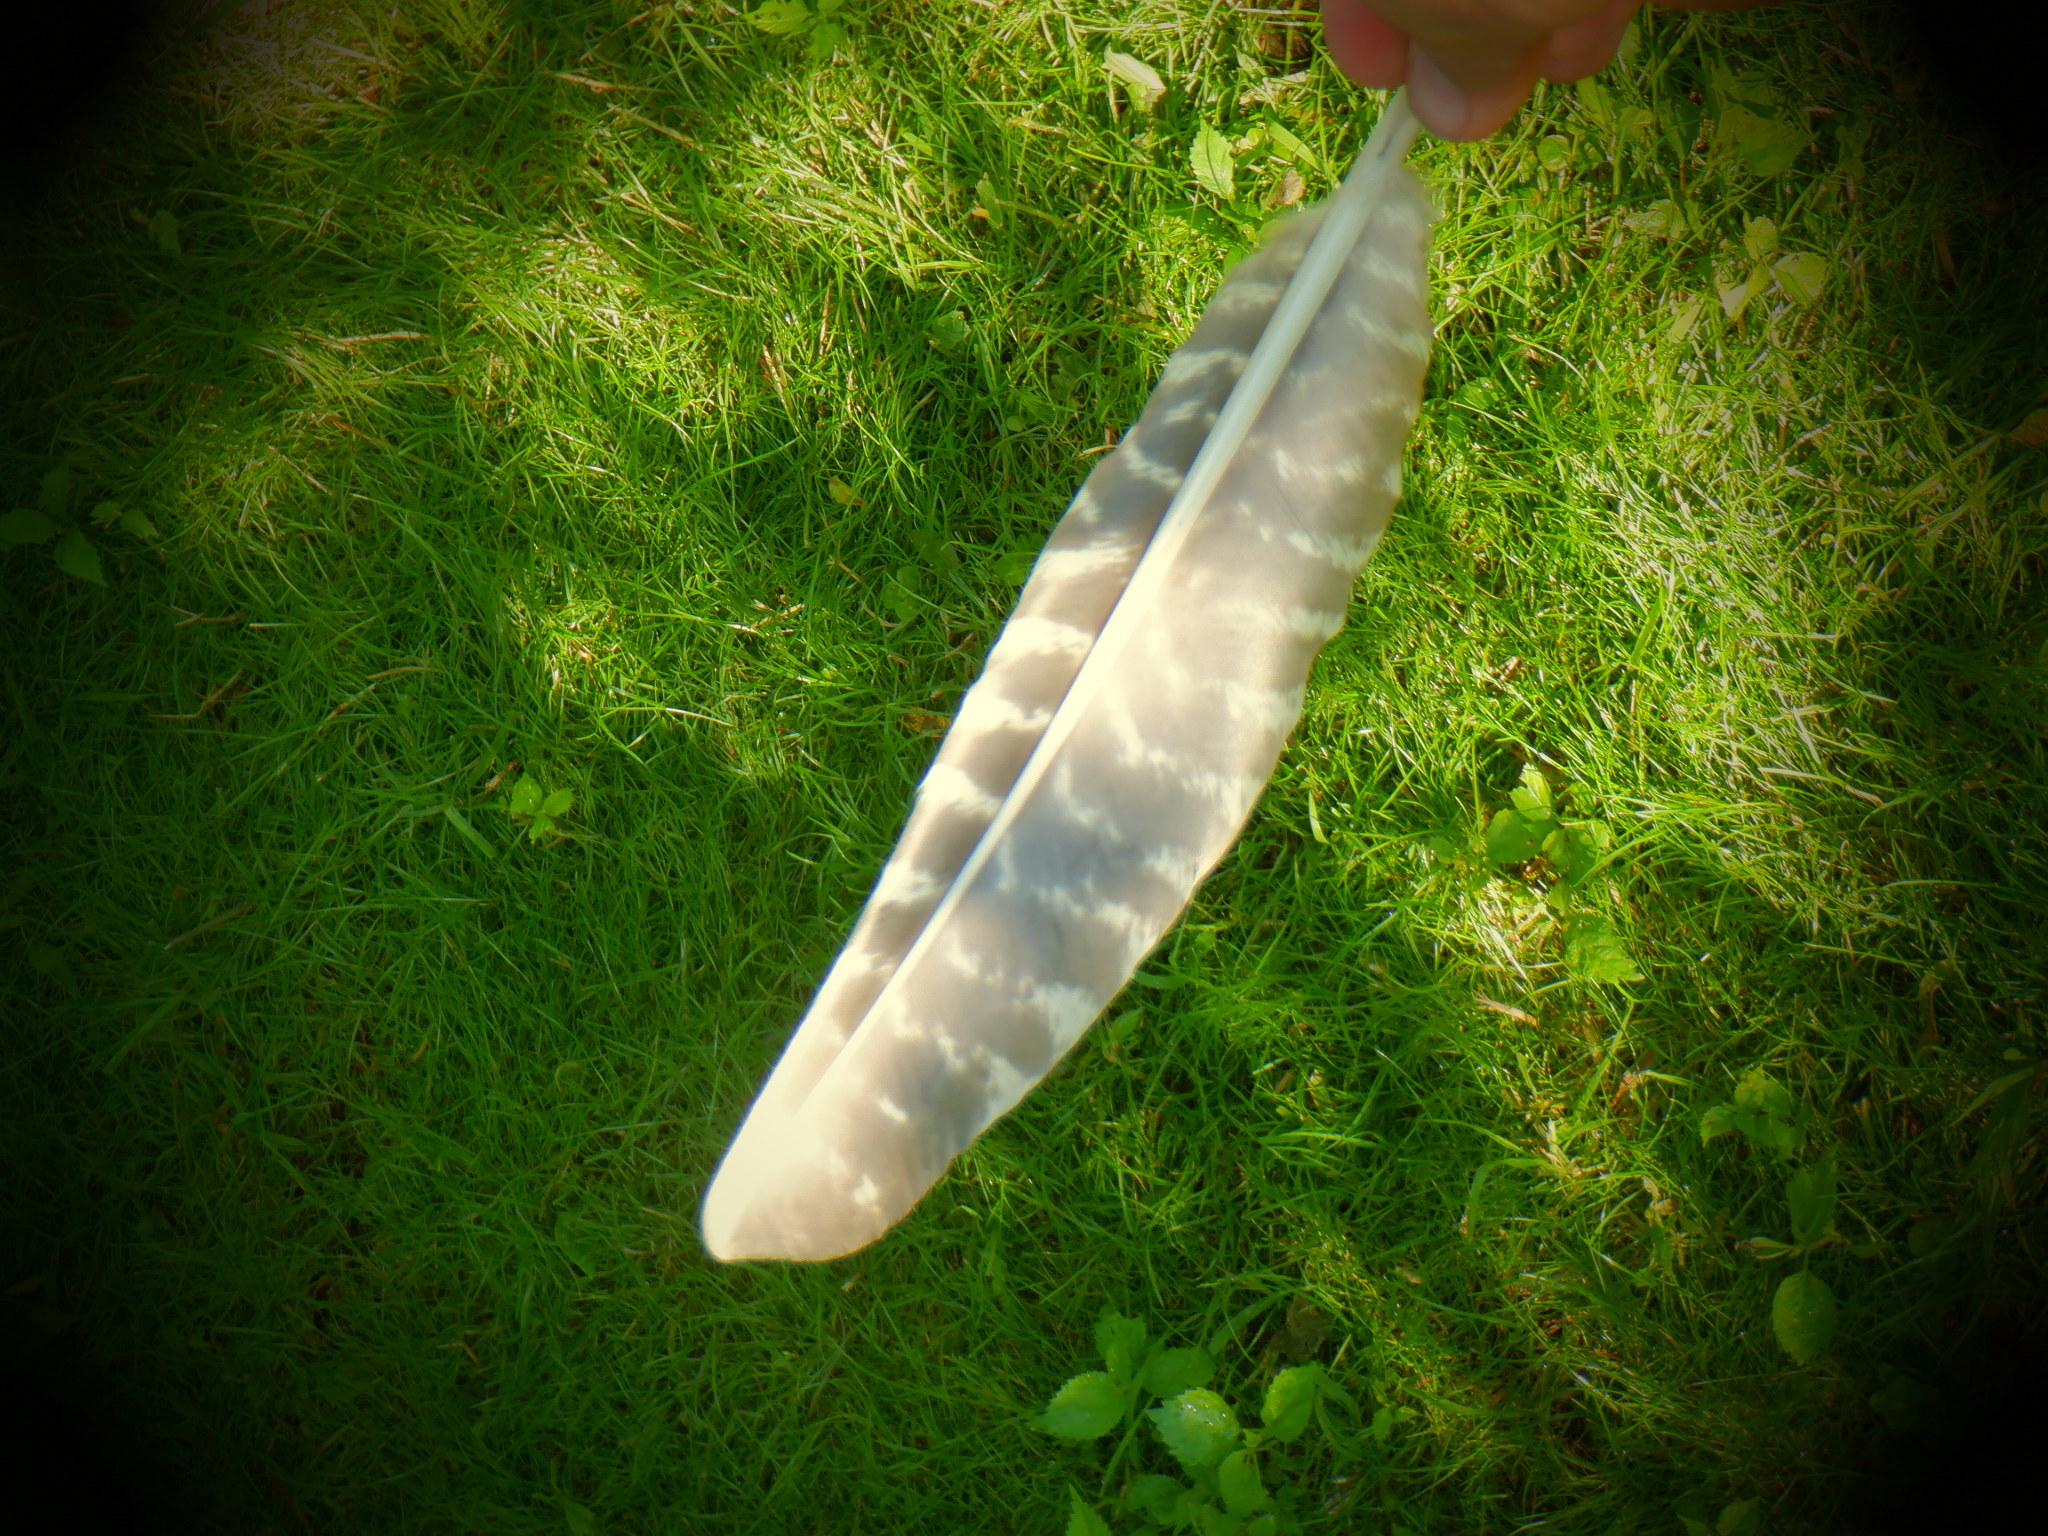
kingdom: Animalia
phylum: Chordata
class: Aves
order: Galliformes
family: Phasianidae
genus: Meleagris
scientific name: Meleagris gallopavo
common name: Wild turkey
